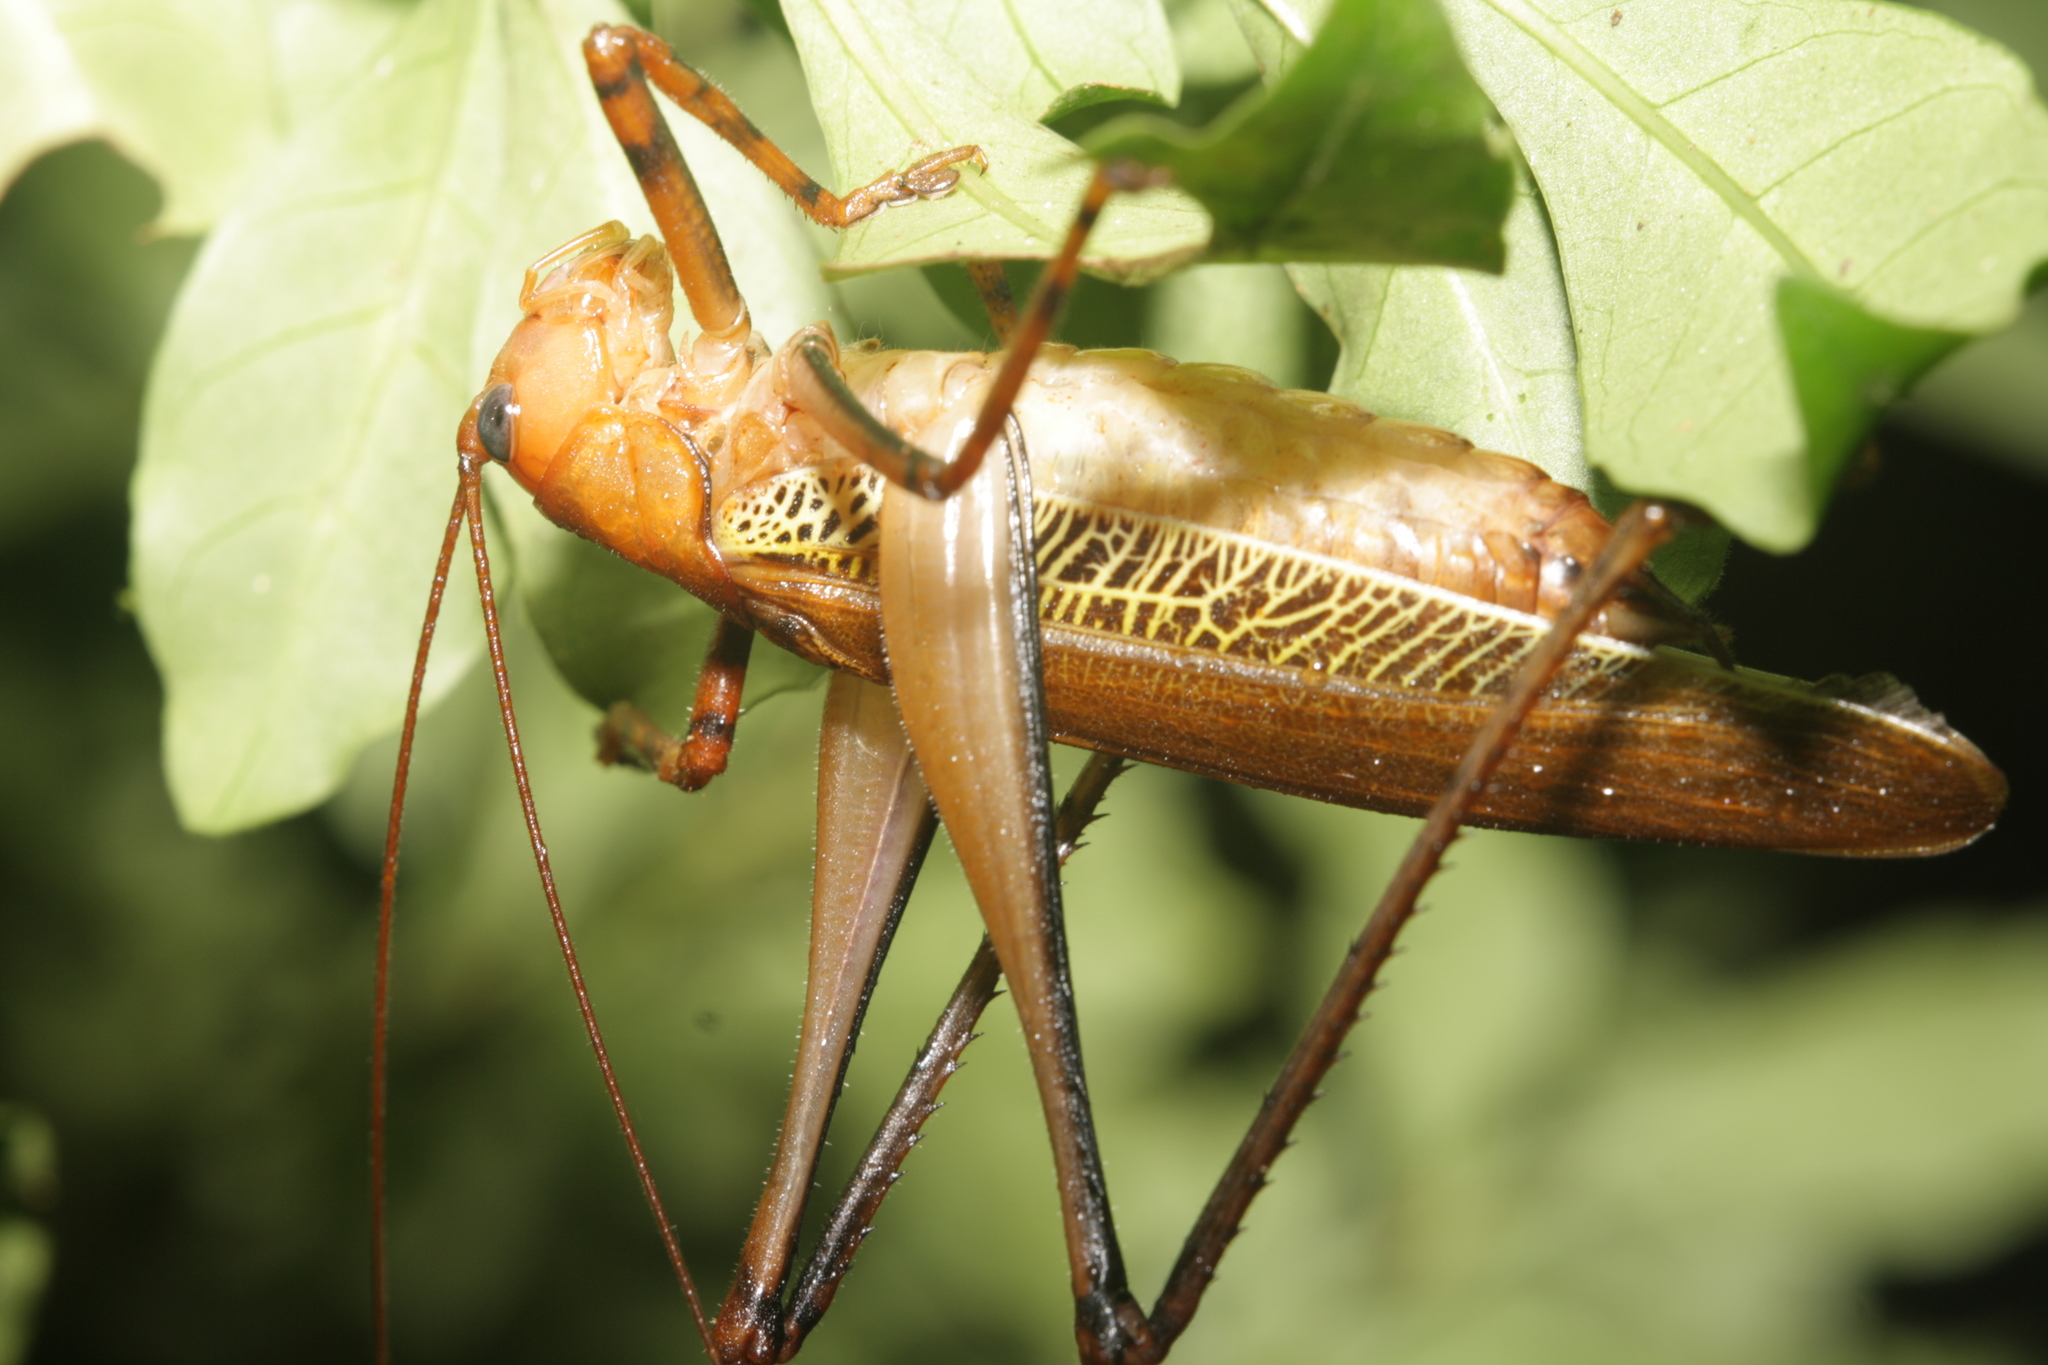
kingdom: Animalia
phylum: Arthropoda
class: Insecta
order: Orthoptera
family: Tettigoniidae
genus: Ischnomela
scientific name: Ischnomela pulchripennis
